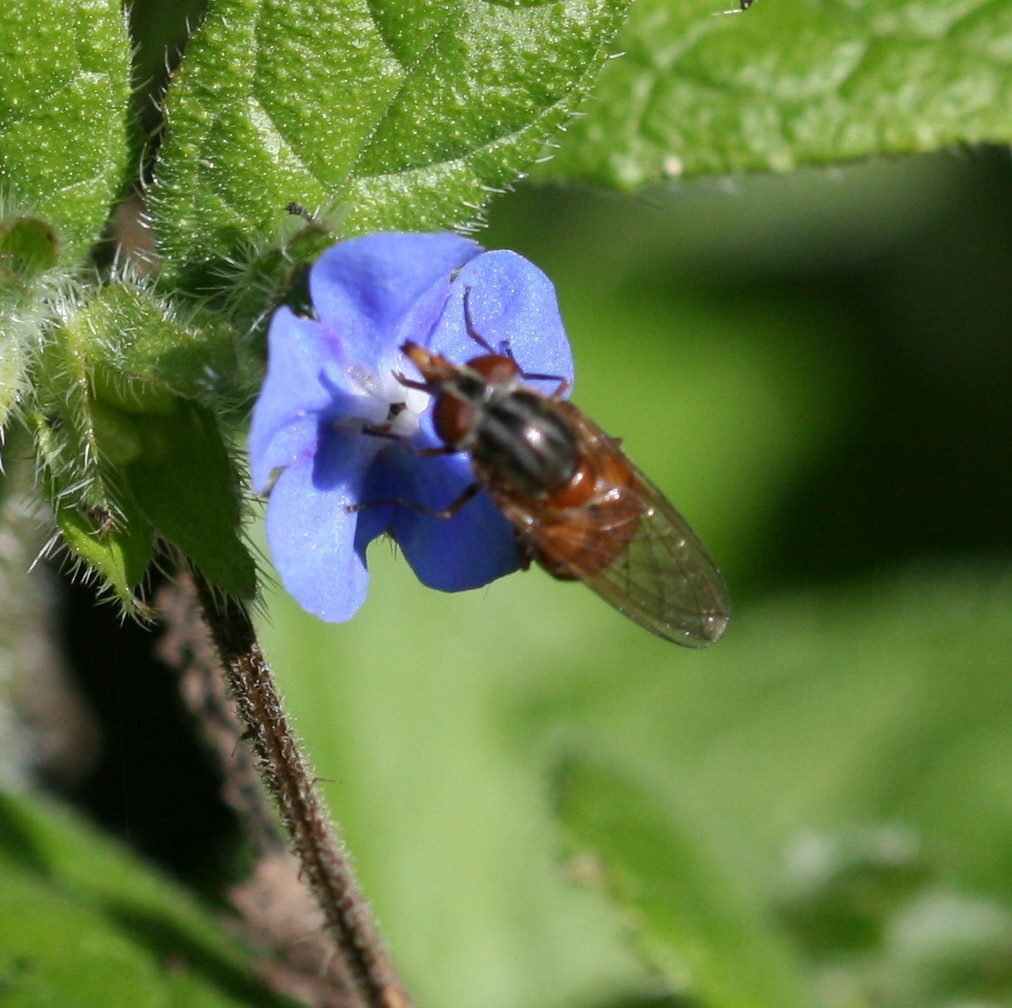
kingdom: Animalia
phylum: Arthropoda
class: Insecta
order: Diptera
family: Syrphidae
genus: Rhingia
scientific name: Rhingia campestris
